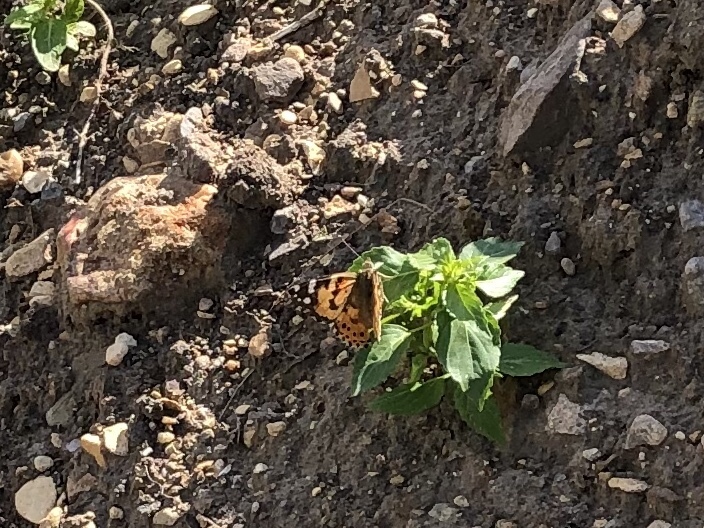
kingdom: Animalia
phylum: Arthropoda
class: Insecta
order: Lepidoptera
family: Nymphalidae
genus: Vanessa
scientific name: Vanessa cardui
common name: Painted lady
